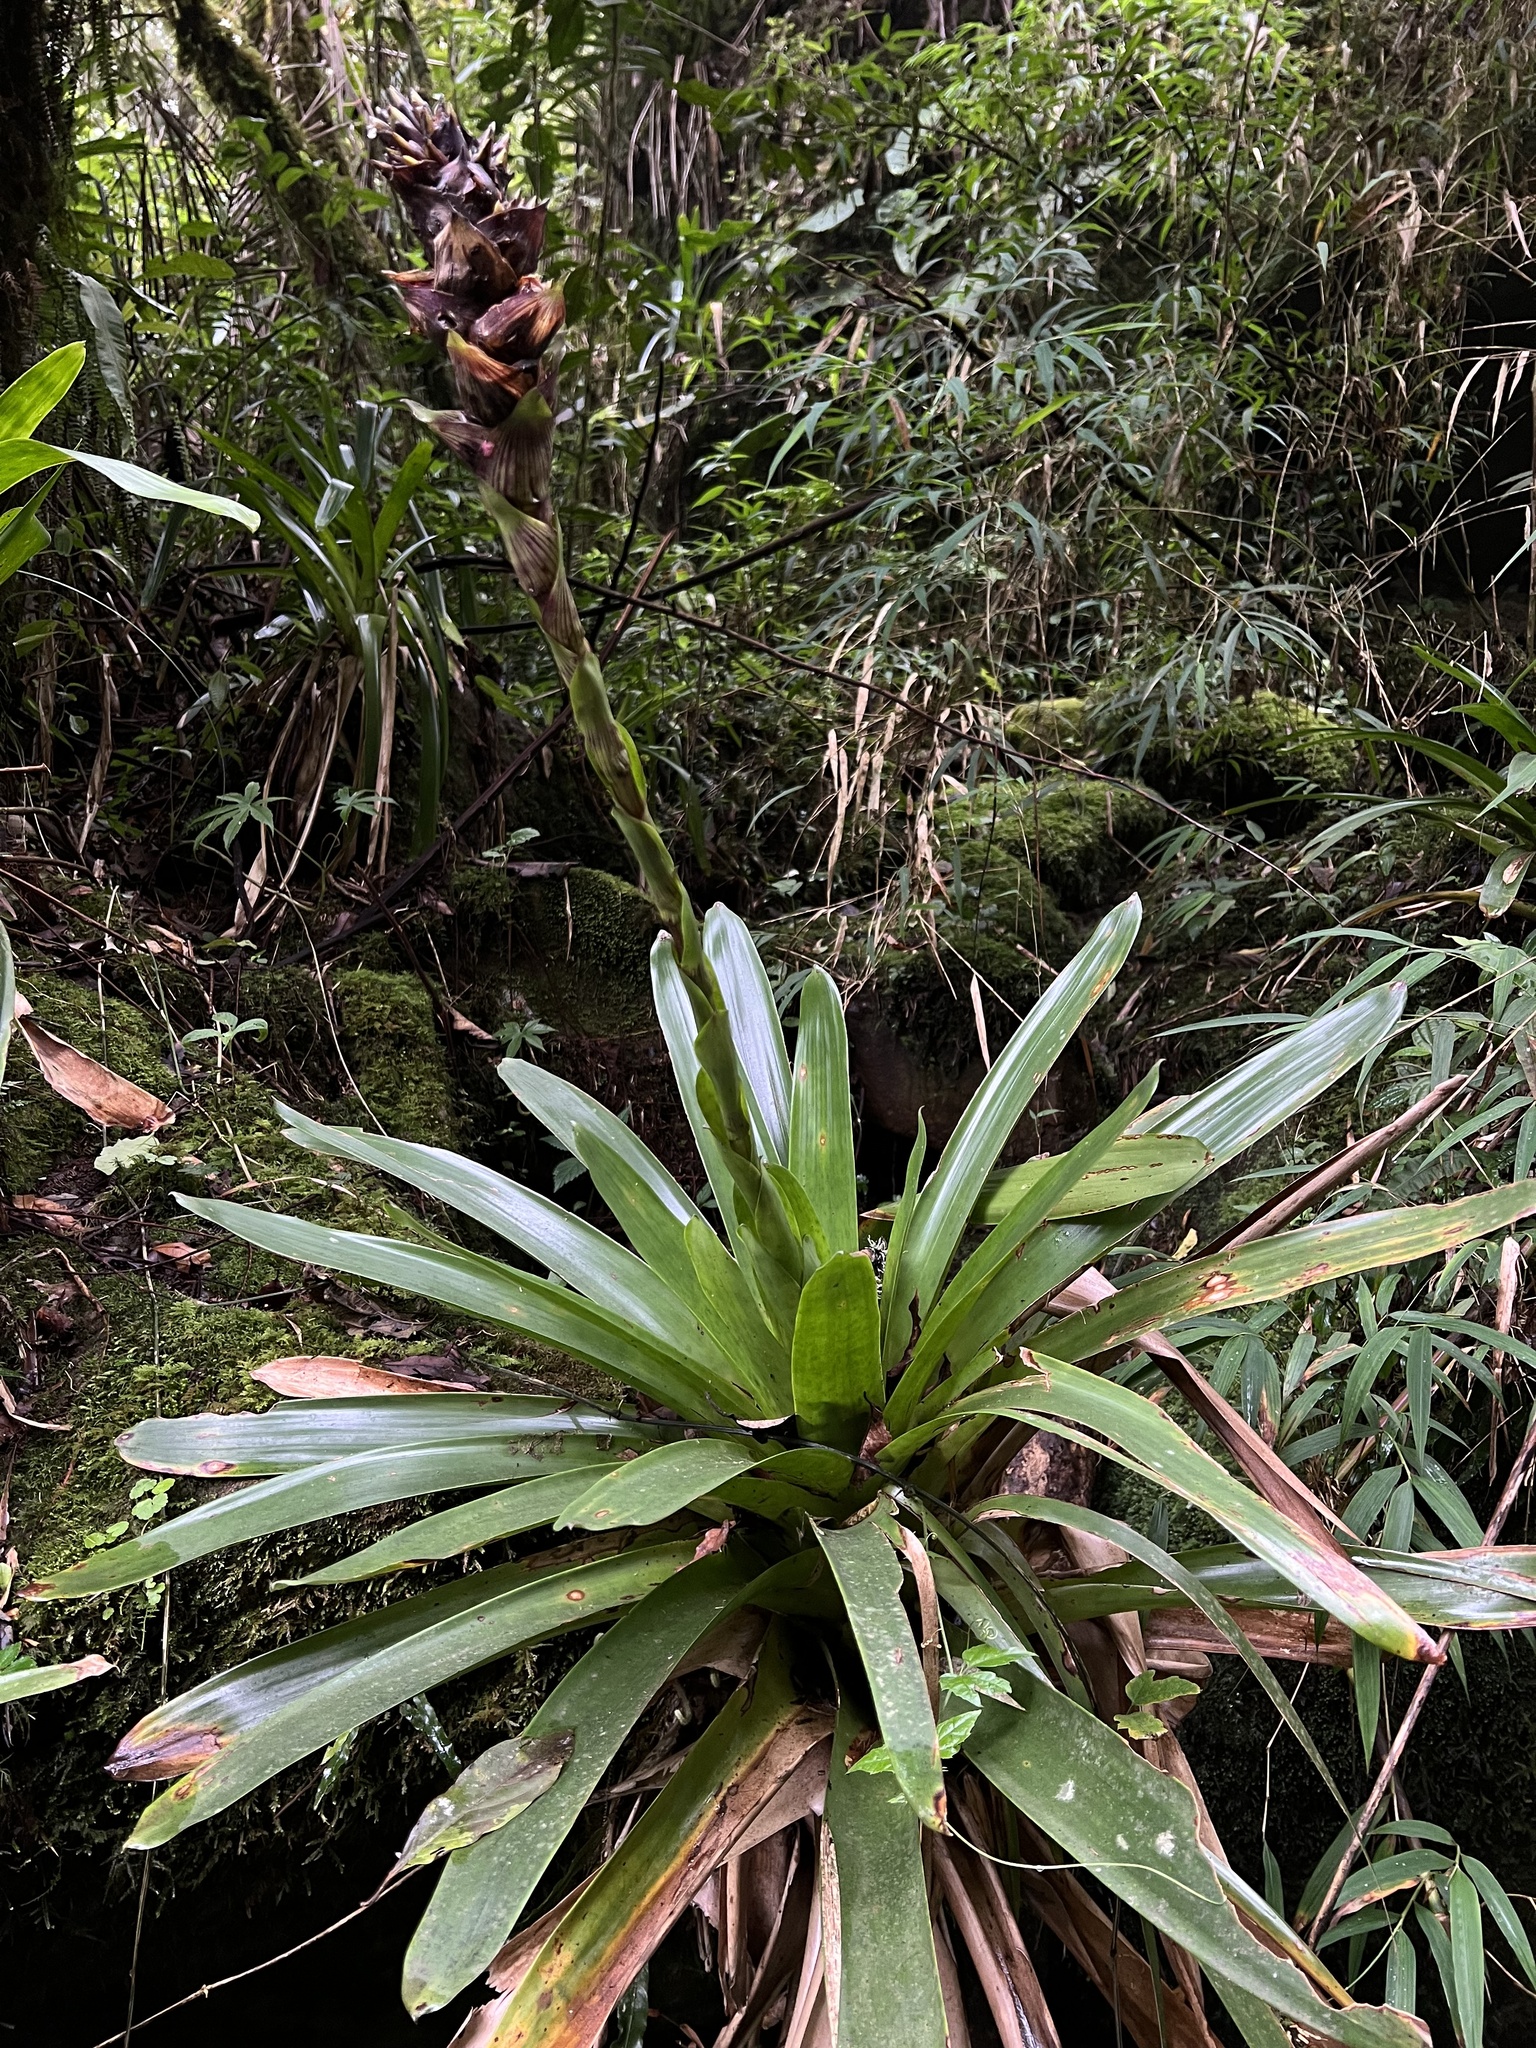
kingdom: Plantae
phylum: Tracheophyta
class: Liliopsida
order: Poales
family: Bromeliaceae
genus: Guzmania
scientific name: Guzmania mitis
